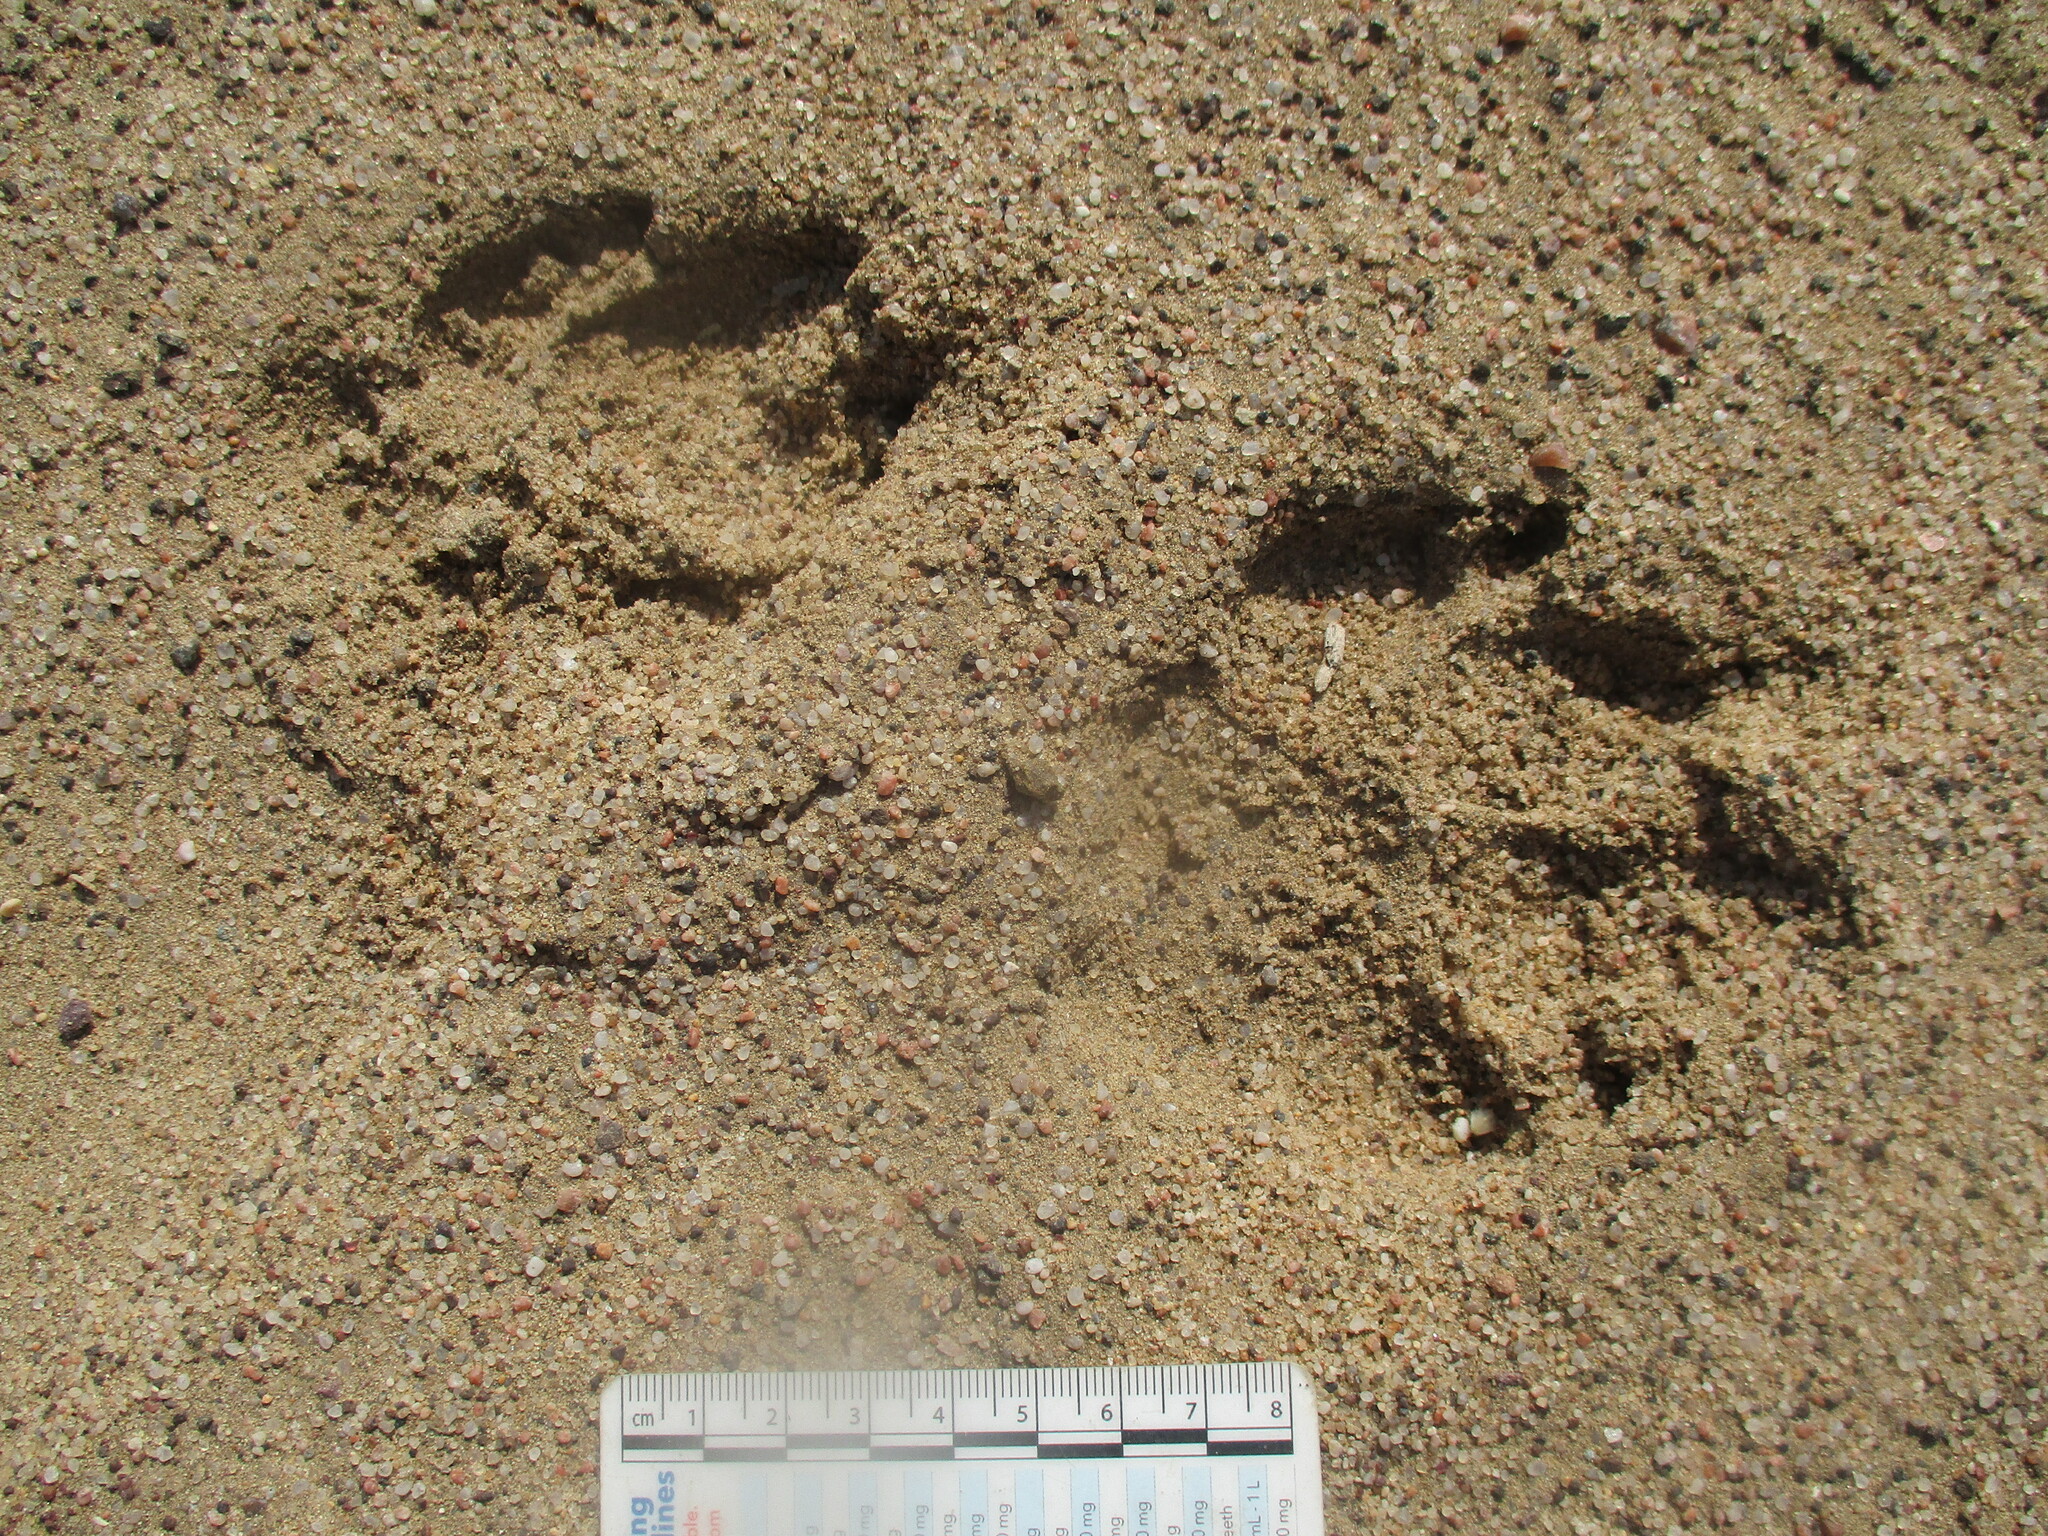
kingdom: Animalia
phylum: Chordata
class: Mammalia
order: Carnivora
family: Felidae
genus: Panthera
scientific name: Panthera leo
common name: Lion
